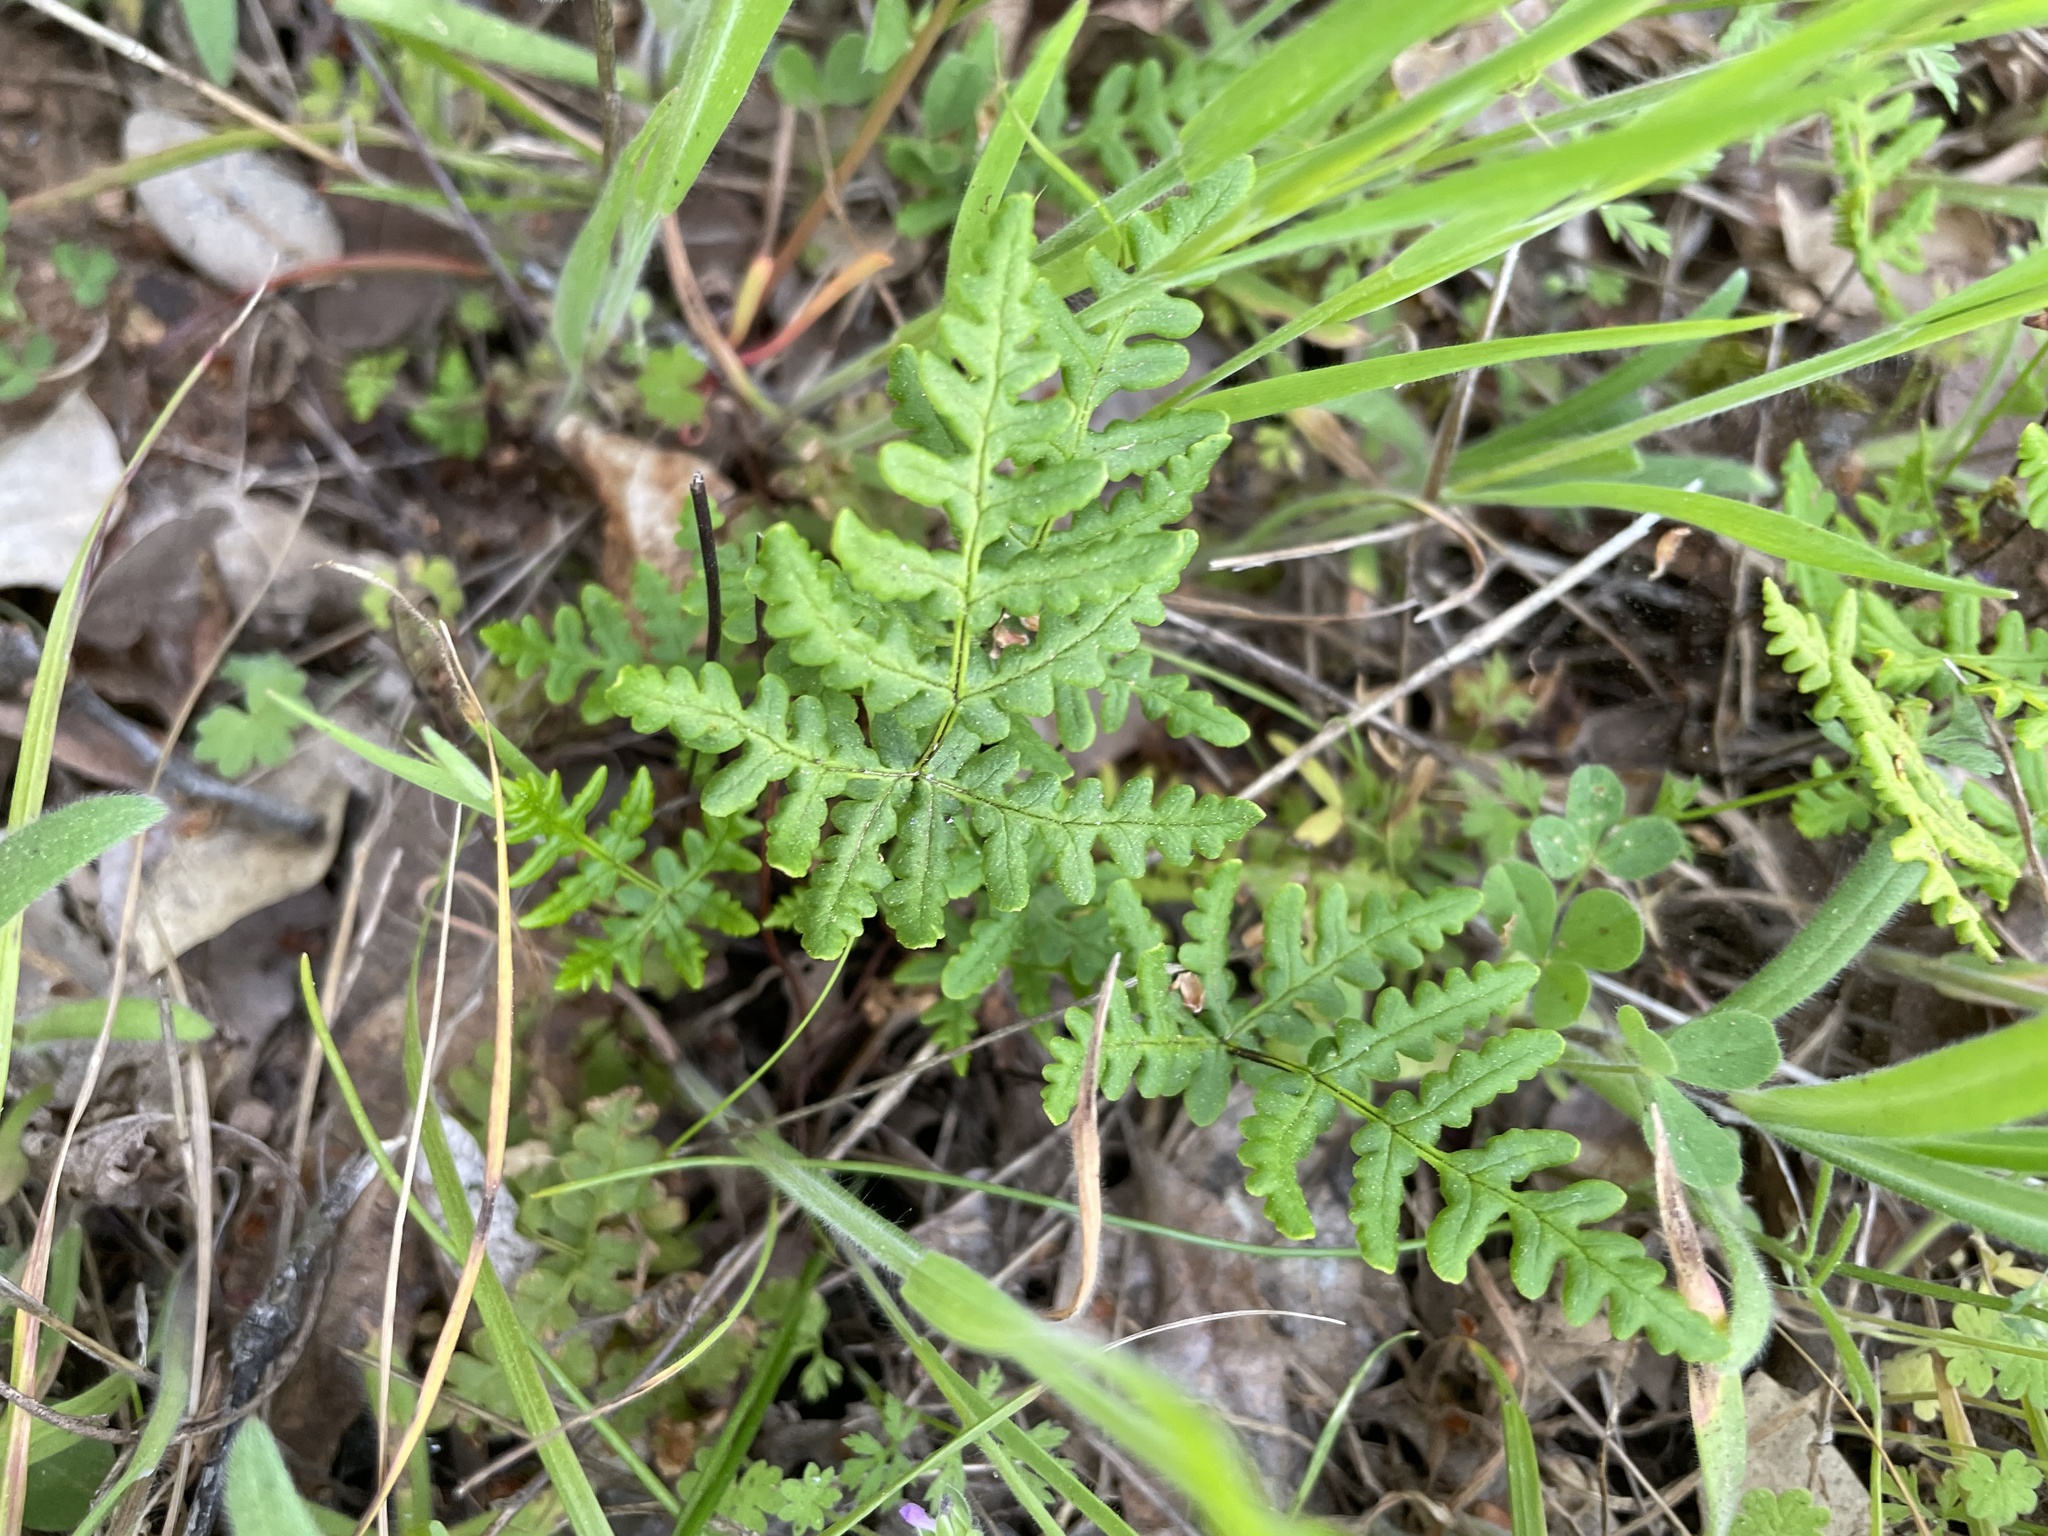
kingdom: Plantae
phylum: Tracheophyta
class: Polypodiopsida
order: Polypodiales
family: Pteridaceae
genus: Pentagramma
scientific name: Pentagramma triangularis
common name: Gold fern
